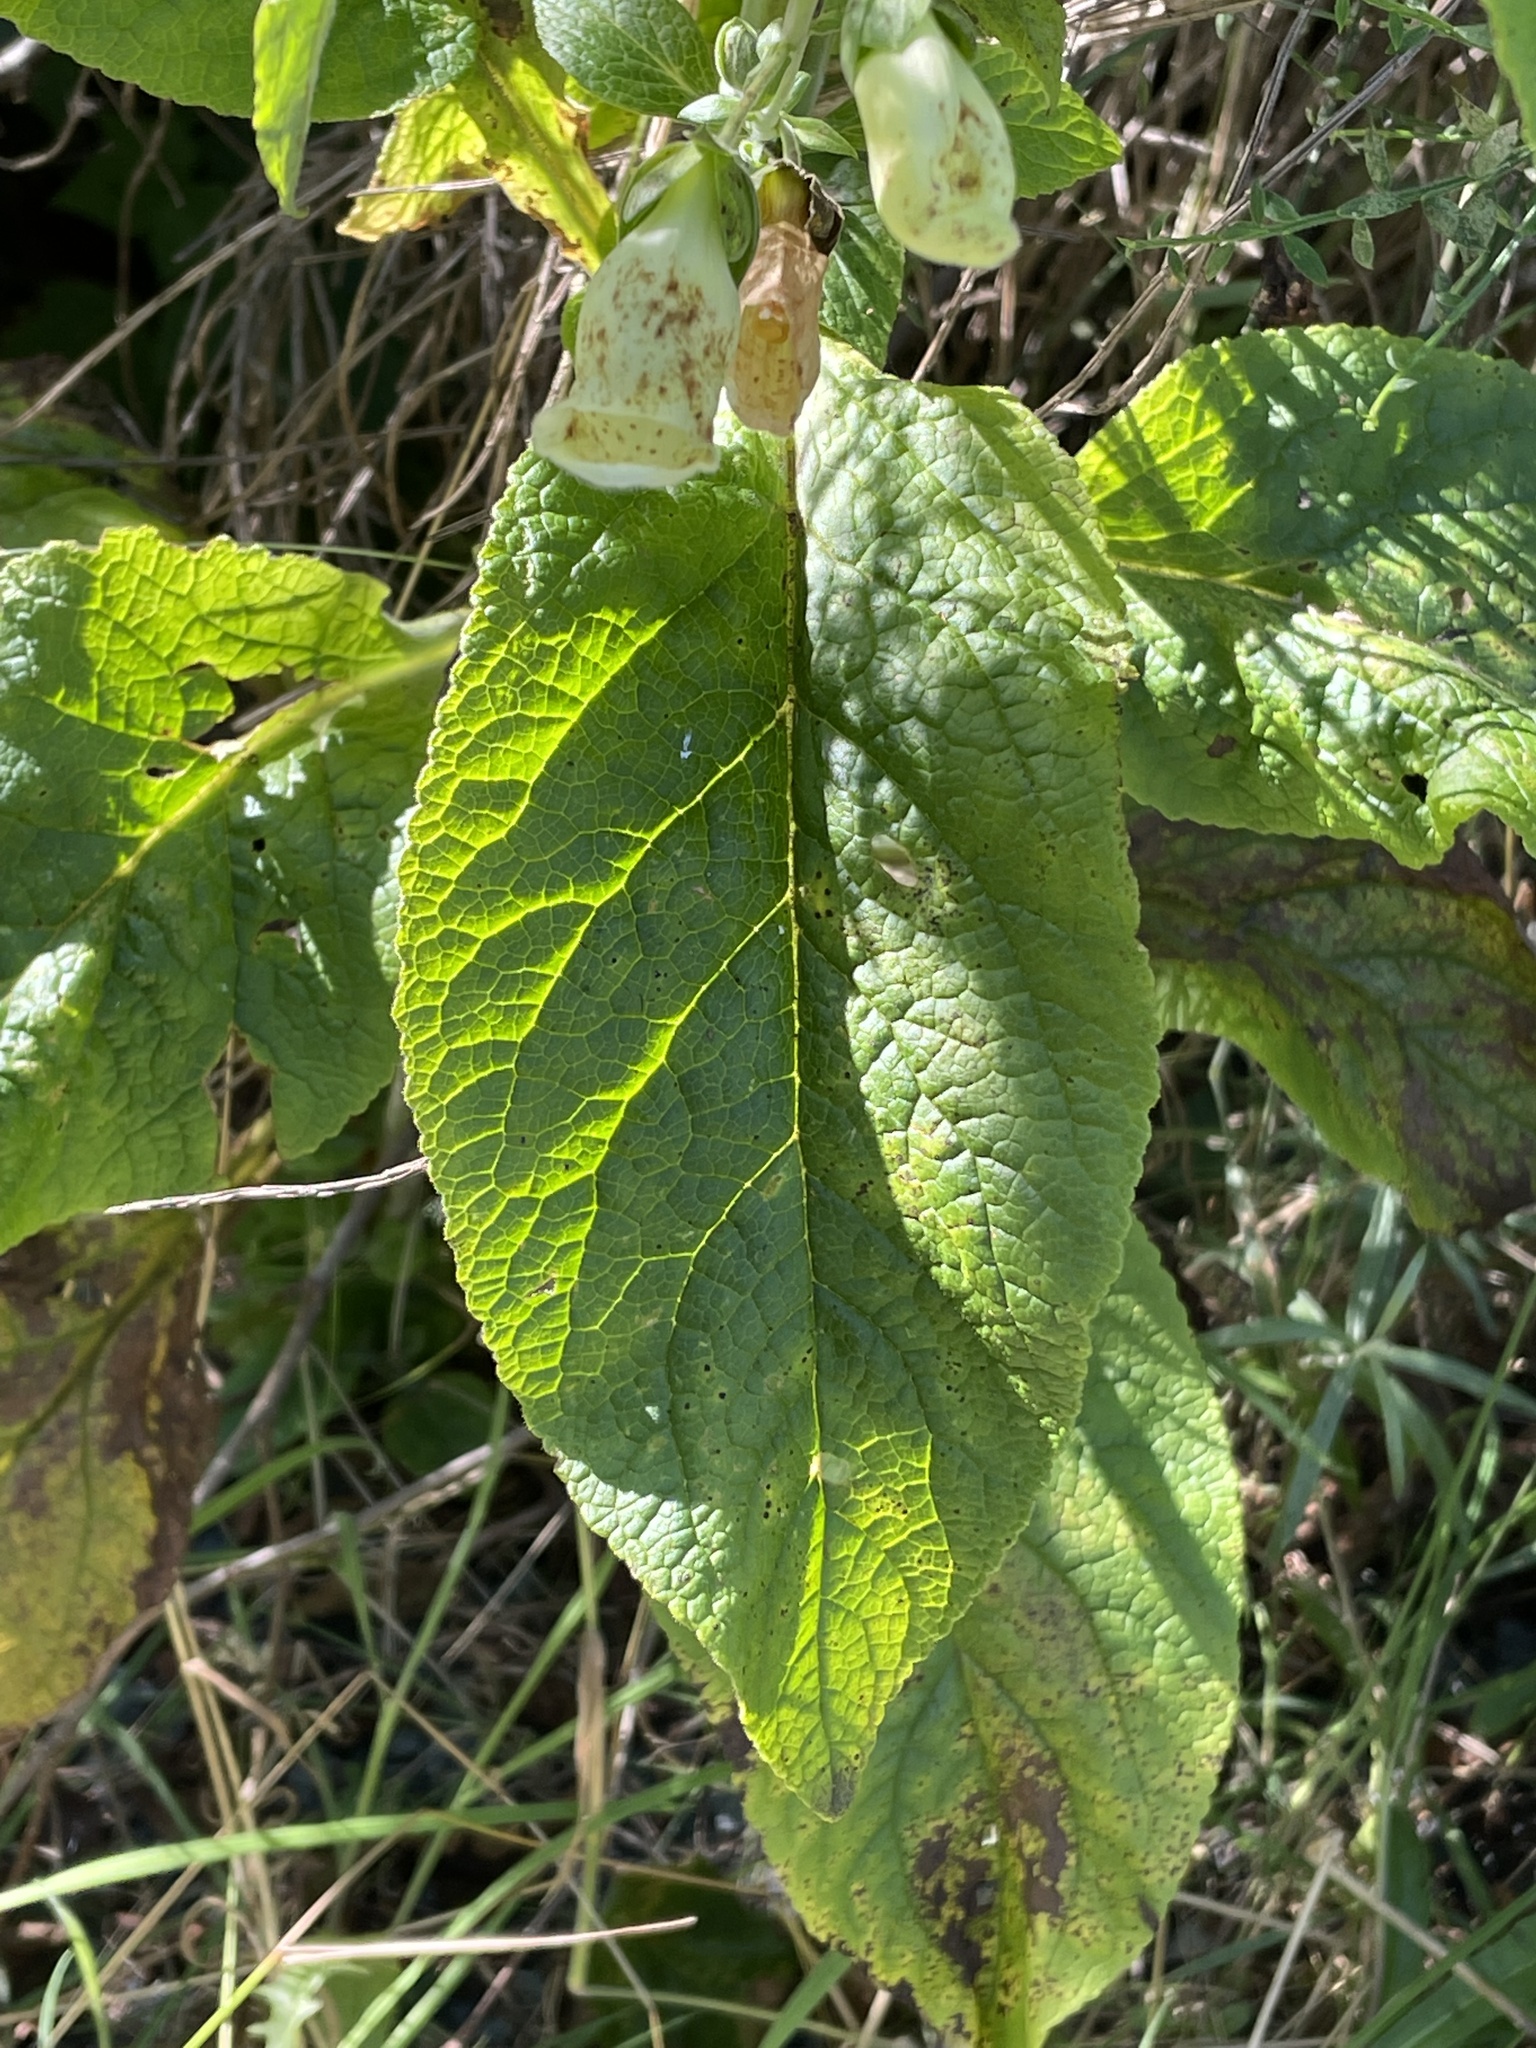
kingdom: Plantae
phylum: Tracheophyta
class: Magnoliopsida
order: Lamiales
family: Plantaginaceae
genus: Digitalis
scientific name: Digitalis purpurea
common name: Foxglove
